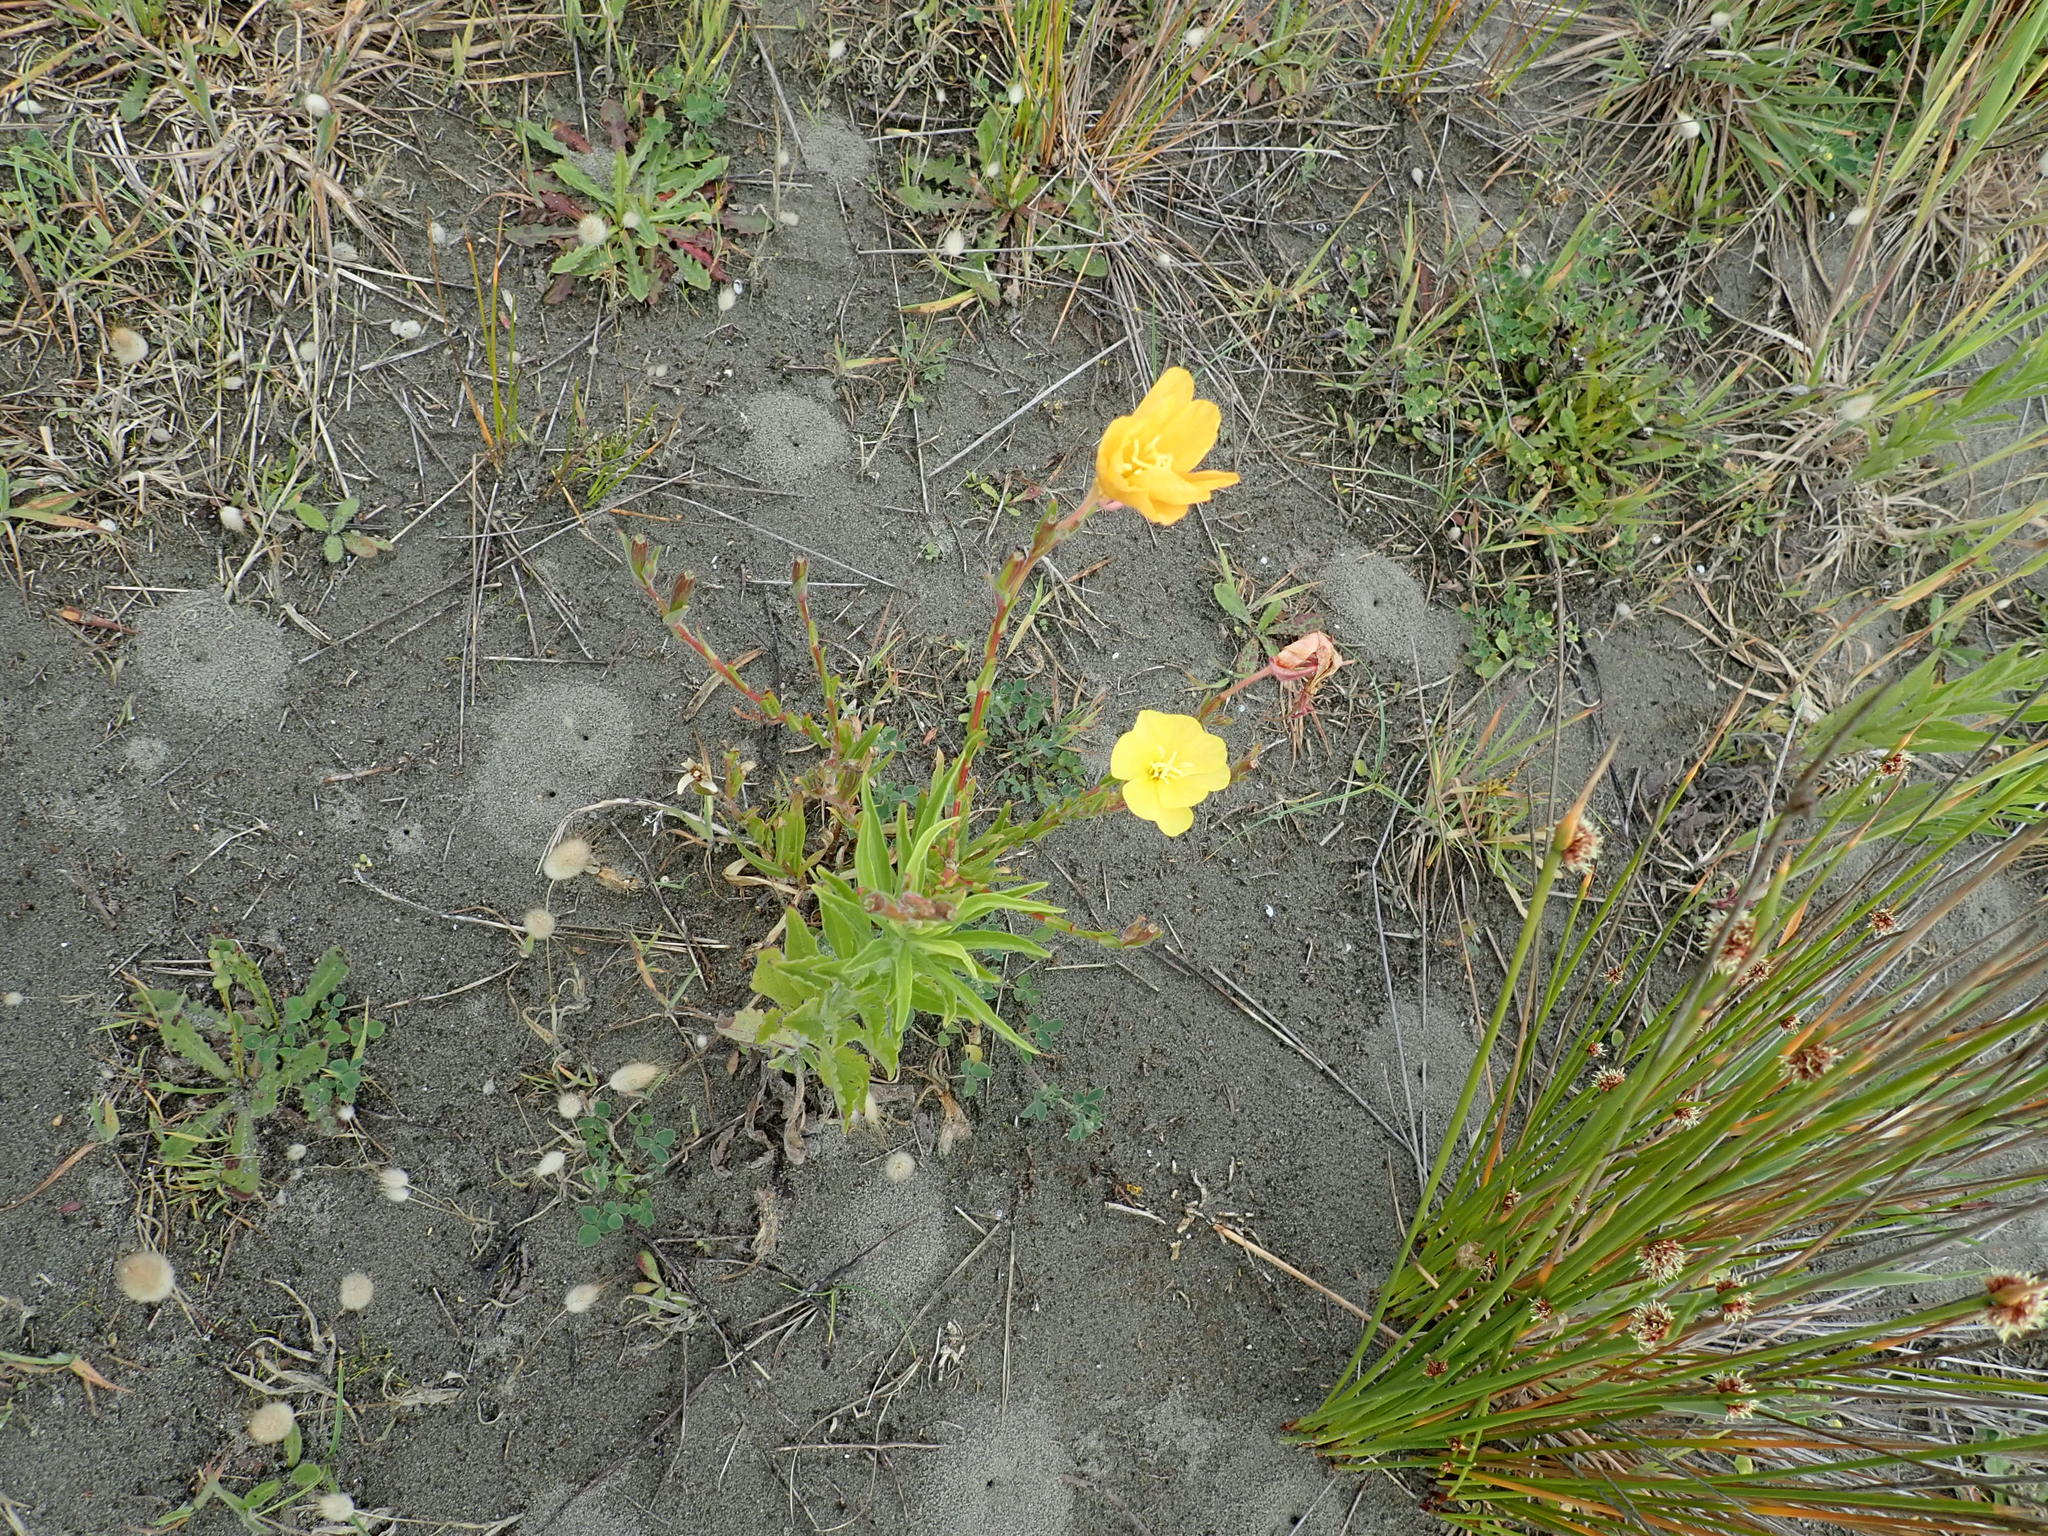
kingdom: Plantae
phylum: Tracheophyta
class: Magnoliopsida
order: Myrtales
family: Onagraceae
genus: Oenothera
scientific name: Oenothera stricta
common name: Fragrant evening-primrose
